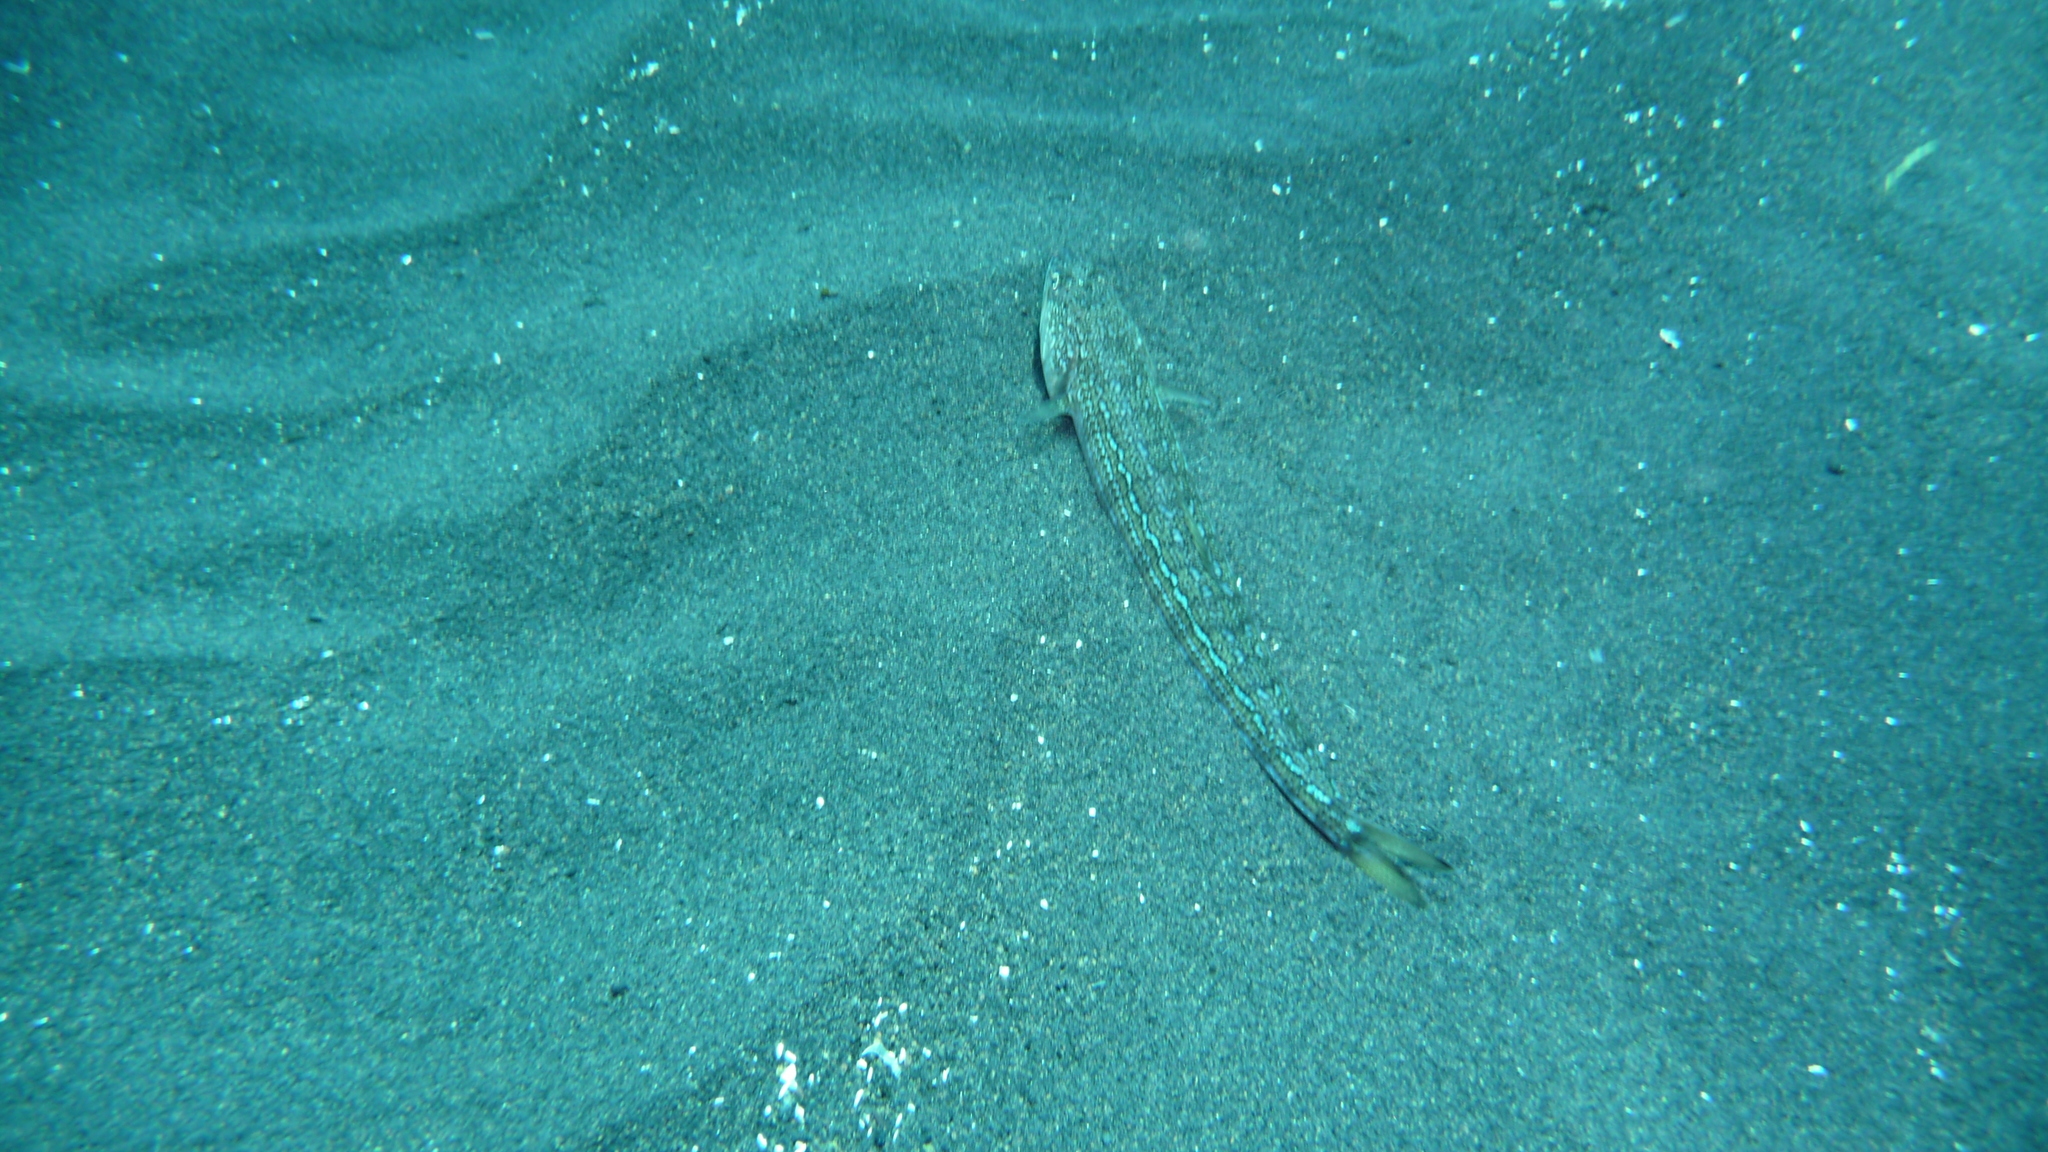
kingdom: Animalia
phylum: Chordata
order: Aulopiformes
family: Synodontidae
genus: Synodus
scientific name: Synodus saurus
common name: Atlantic lizardfish
